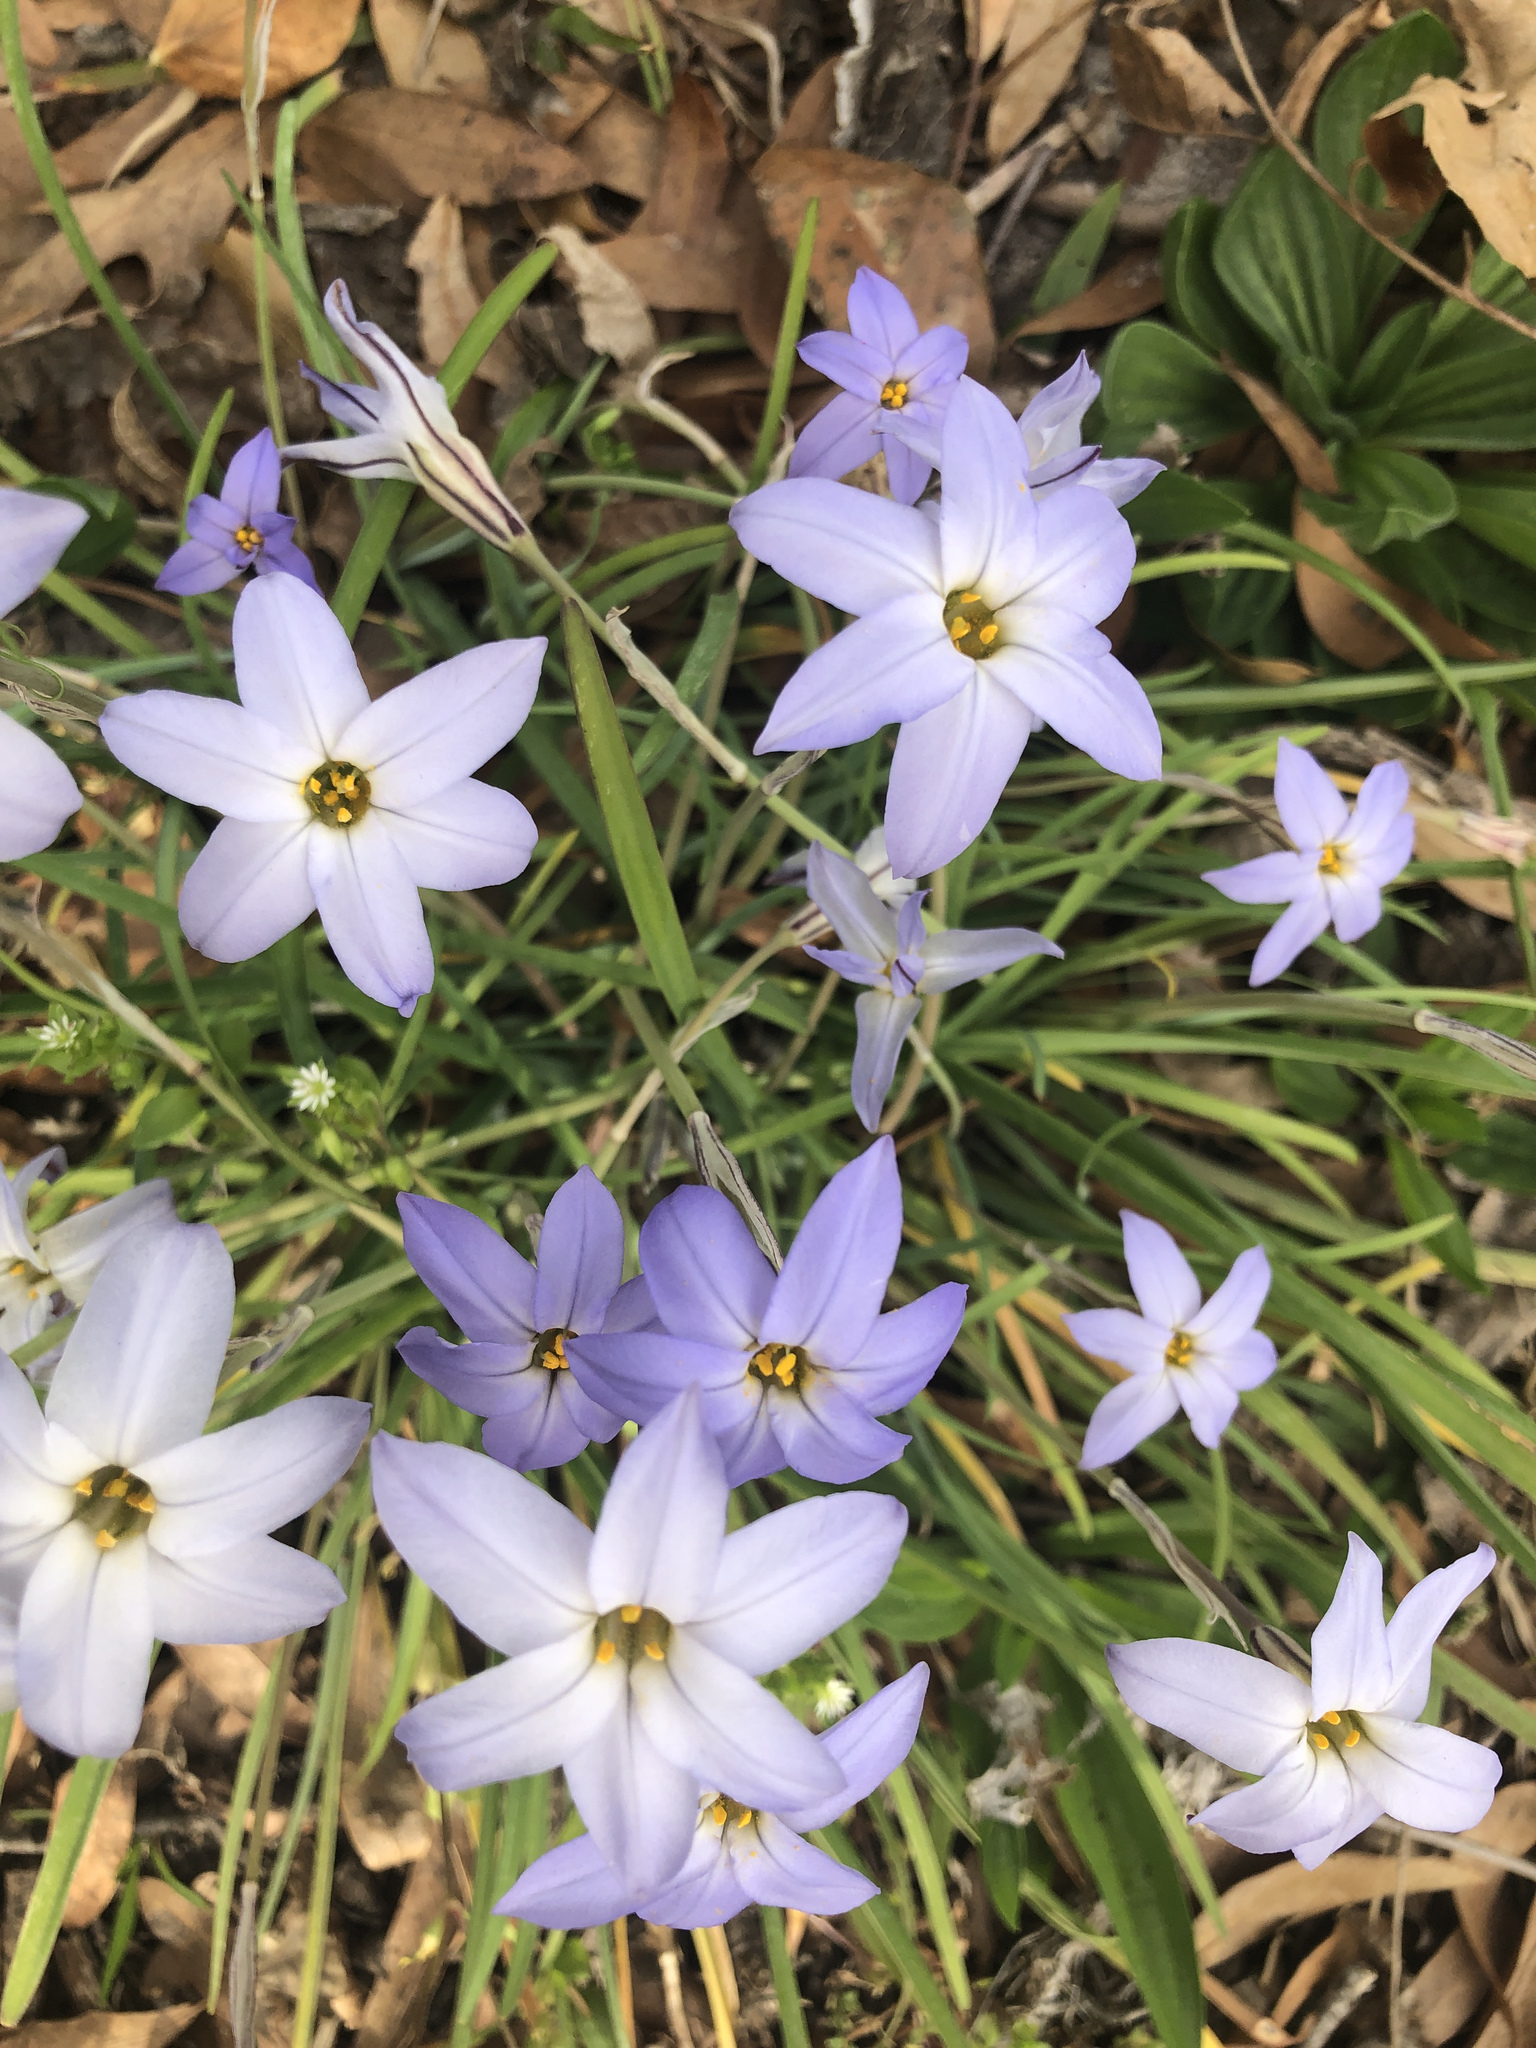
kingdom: Plantae
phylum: Tracheophyta
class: Liliopsida
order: Asparagales
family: Amaryllidaceae
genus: Ipheion
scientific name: Ipheion uniflorum
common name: Spring starflower
